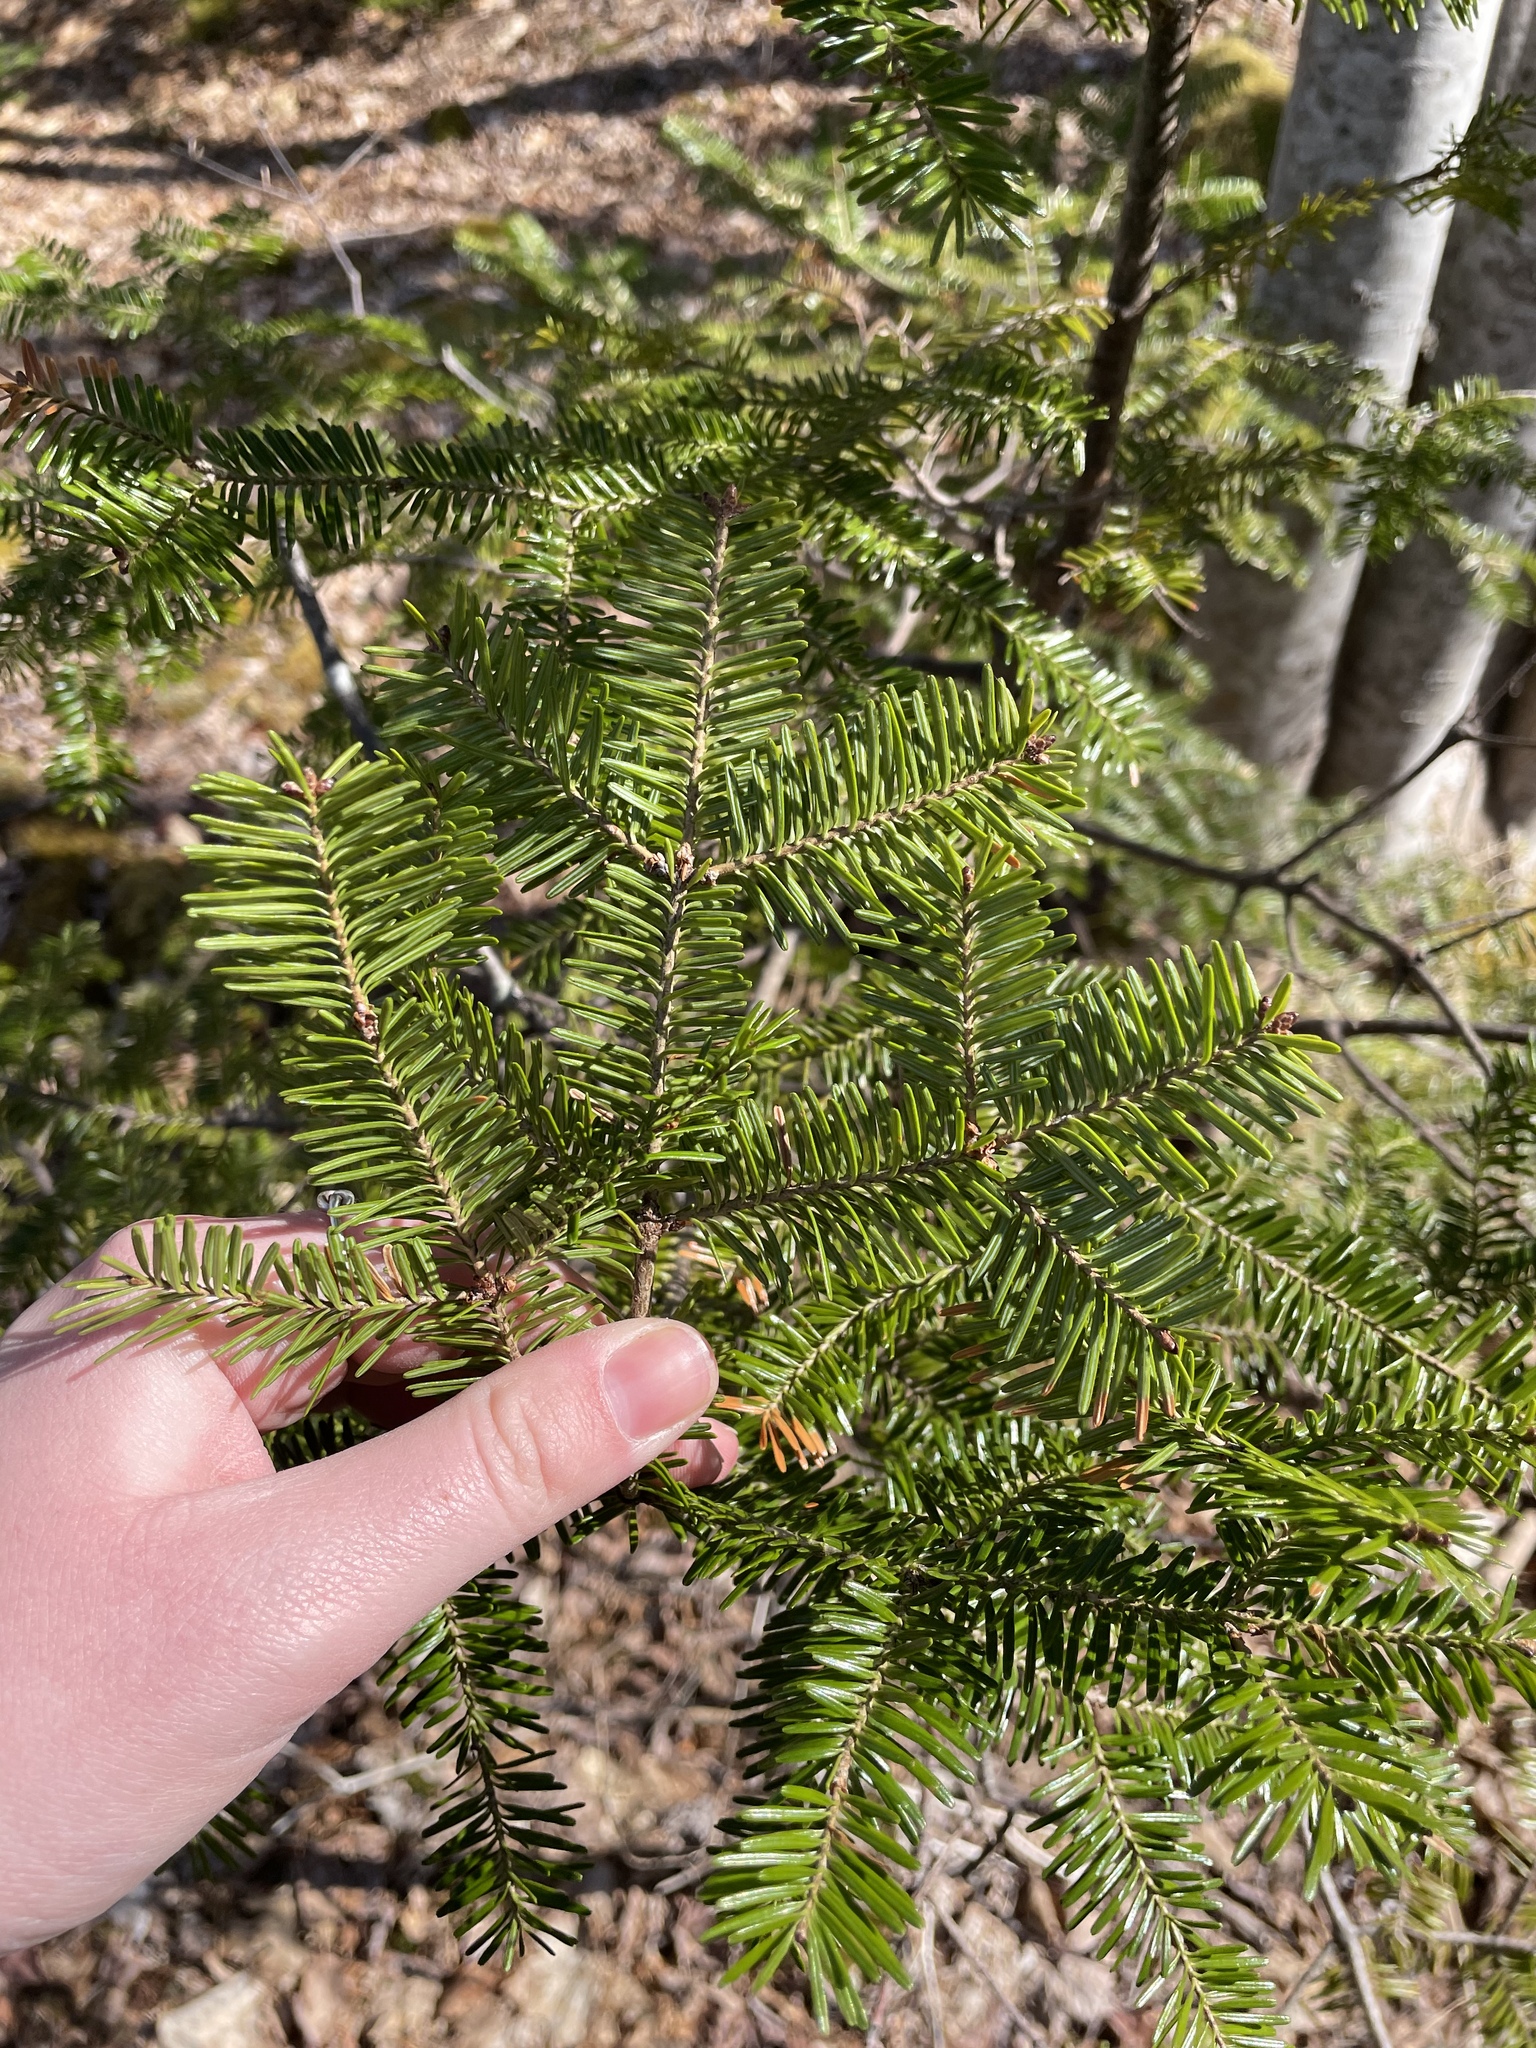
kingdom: Plantae
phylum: Tracheophyta
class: Pinopsida
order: Pinales
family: Pinaceae
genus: Abies
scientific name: Abies balsamea
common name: Balsam fir
